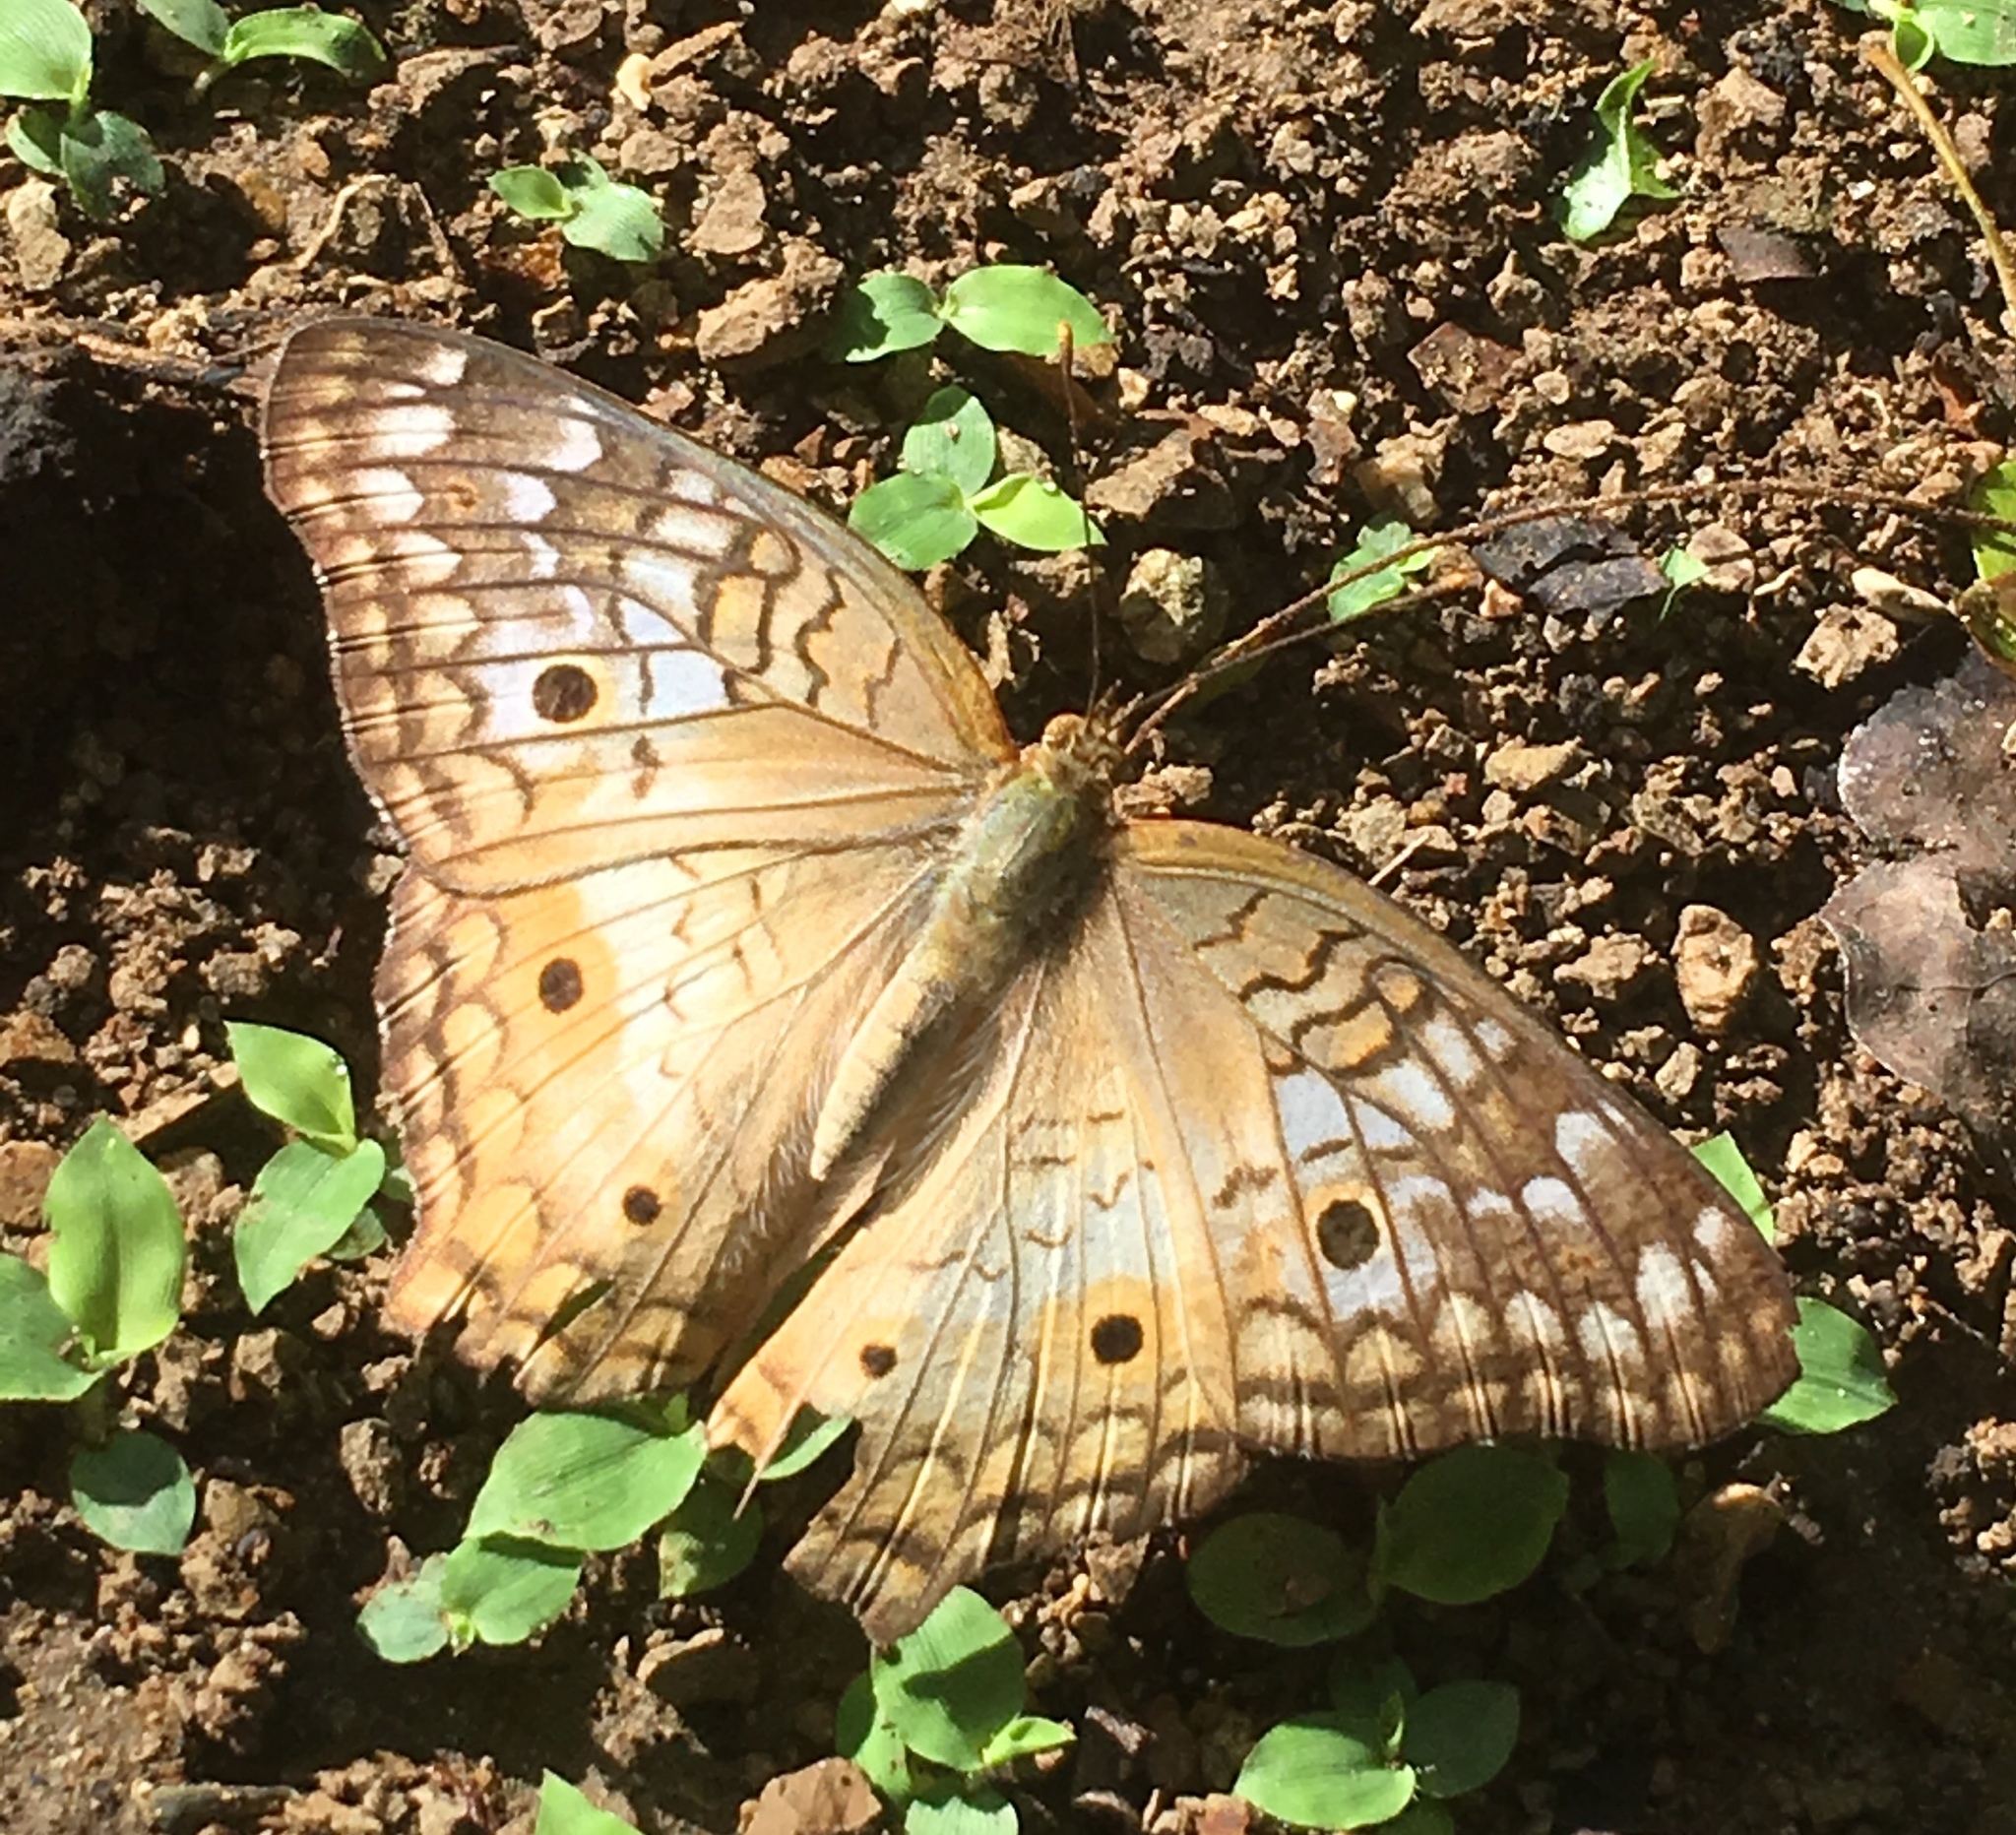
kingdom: Animalia
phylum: Arthropoda
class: Insecta
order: Lepidoptera
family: Nymphalidae
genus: Anartia
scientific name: Anartia jatrophae
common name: White peacock
